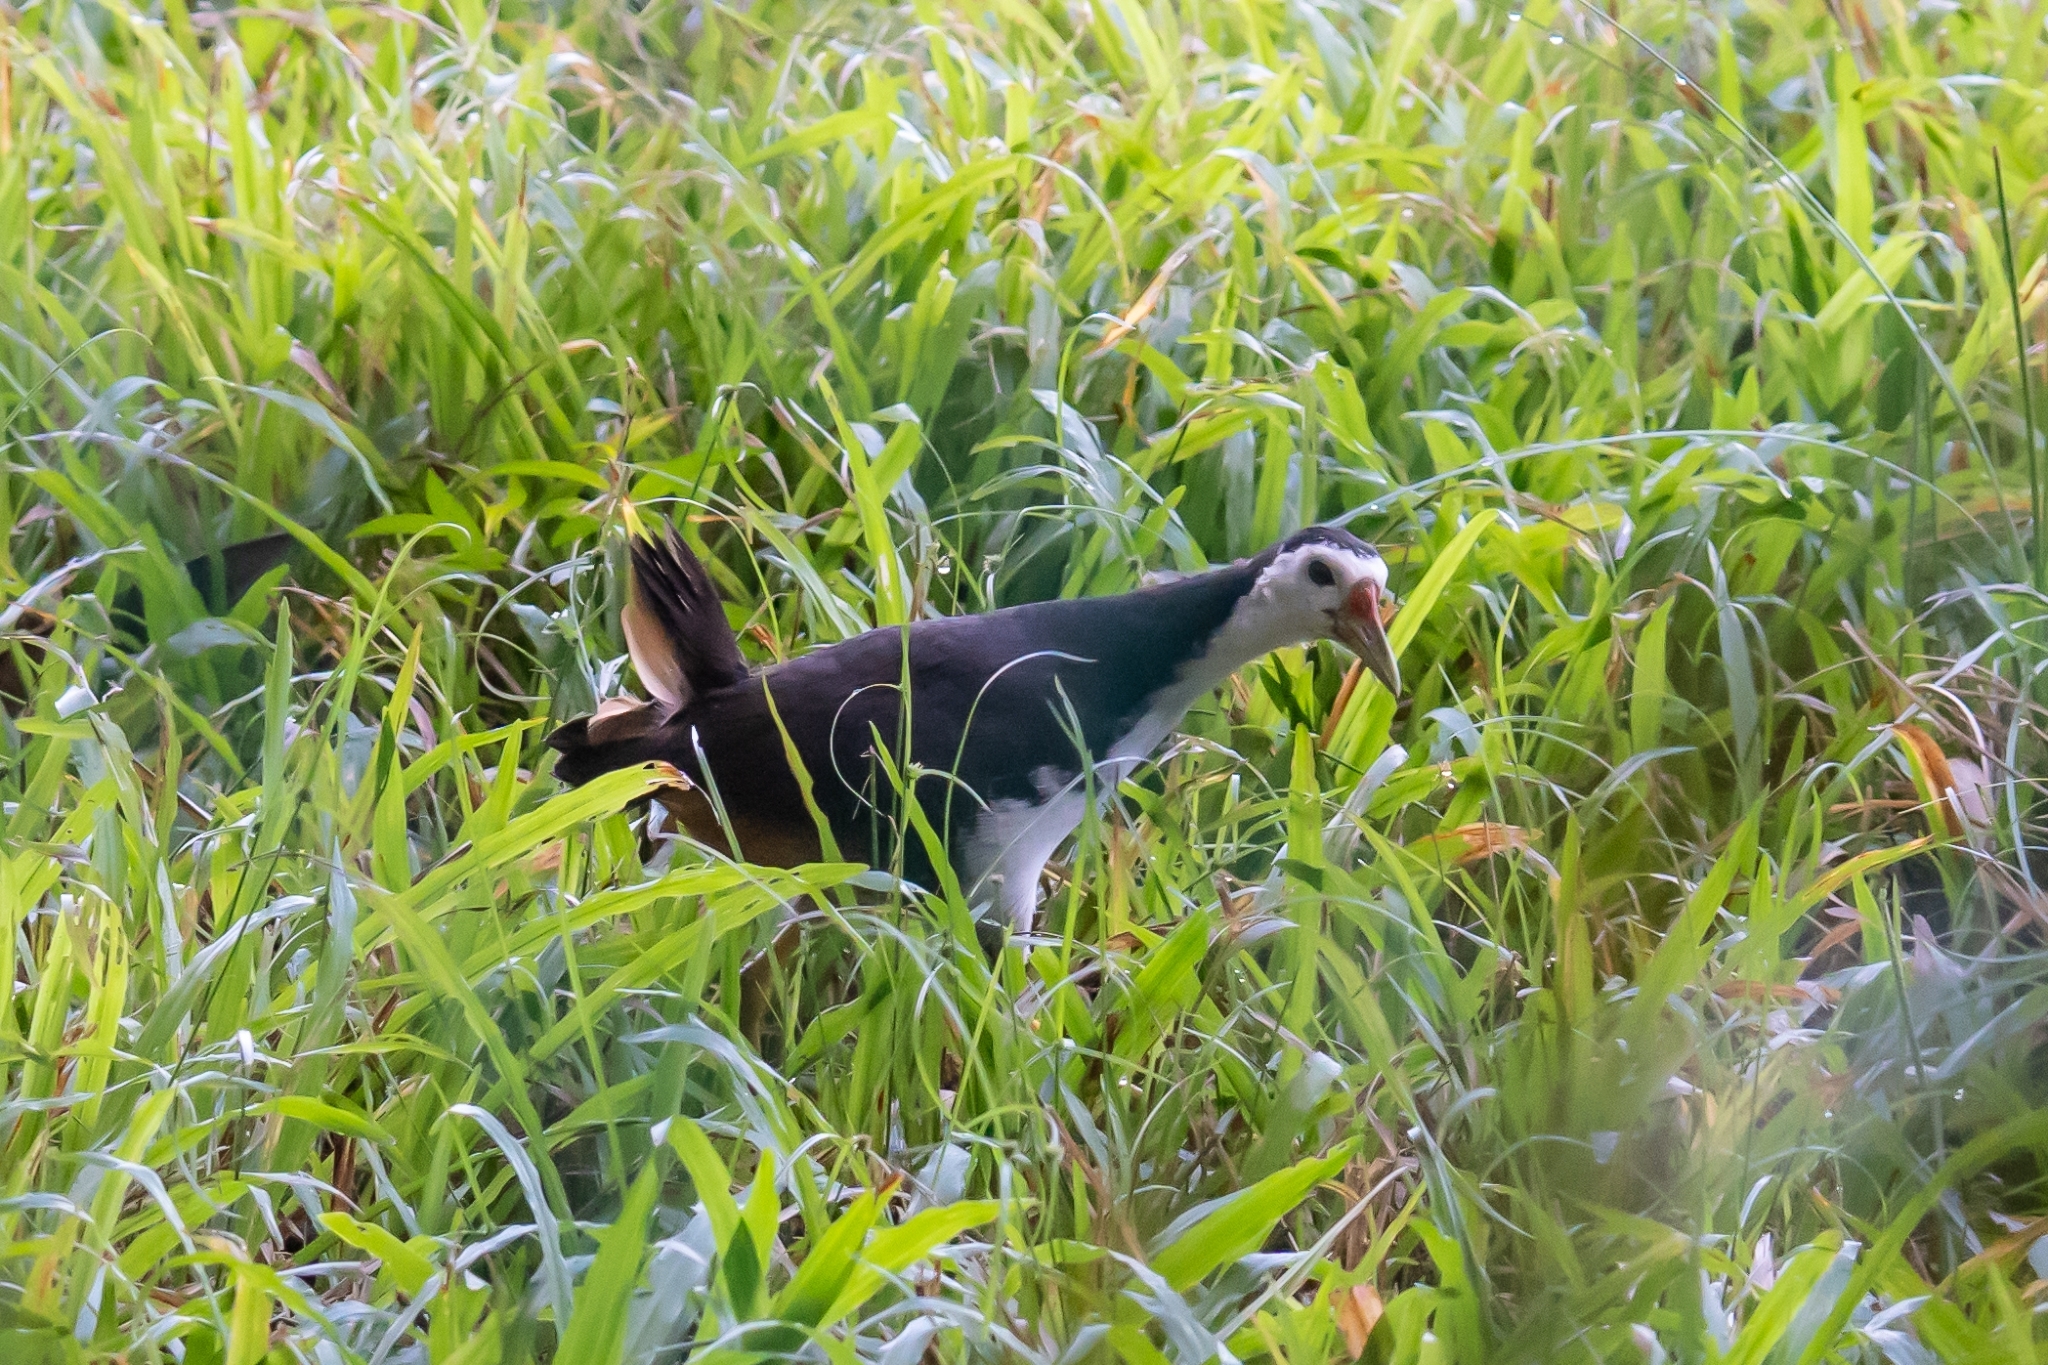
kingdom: Animalia
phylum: Chordata
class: Aves
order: Gruiformes
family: Rallidae
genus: Amaurornis
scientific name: Amaurornis phoenicurus
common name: White-breasted waterhen
